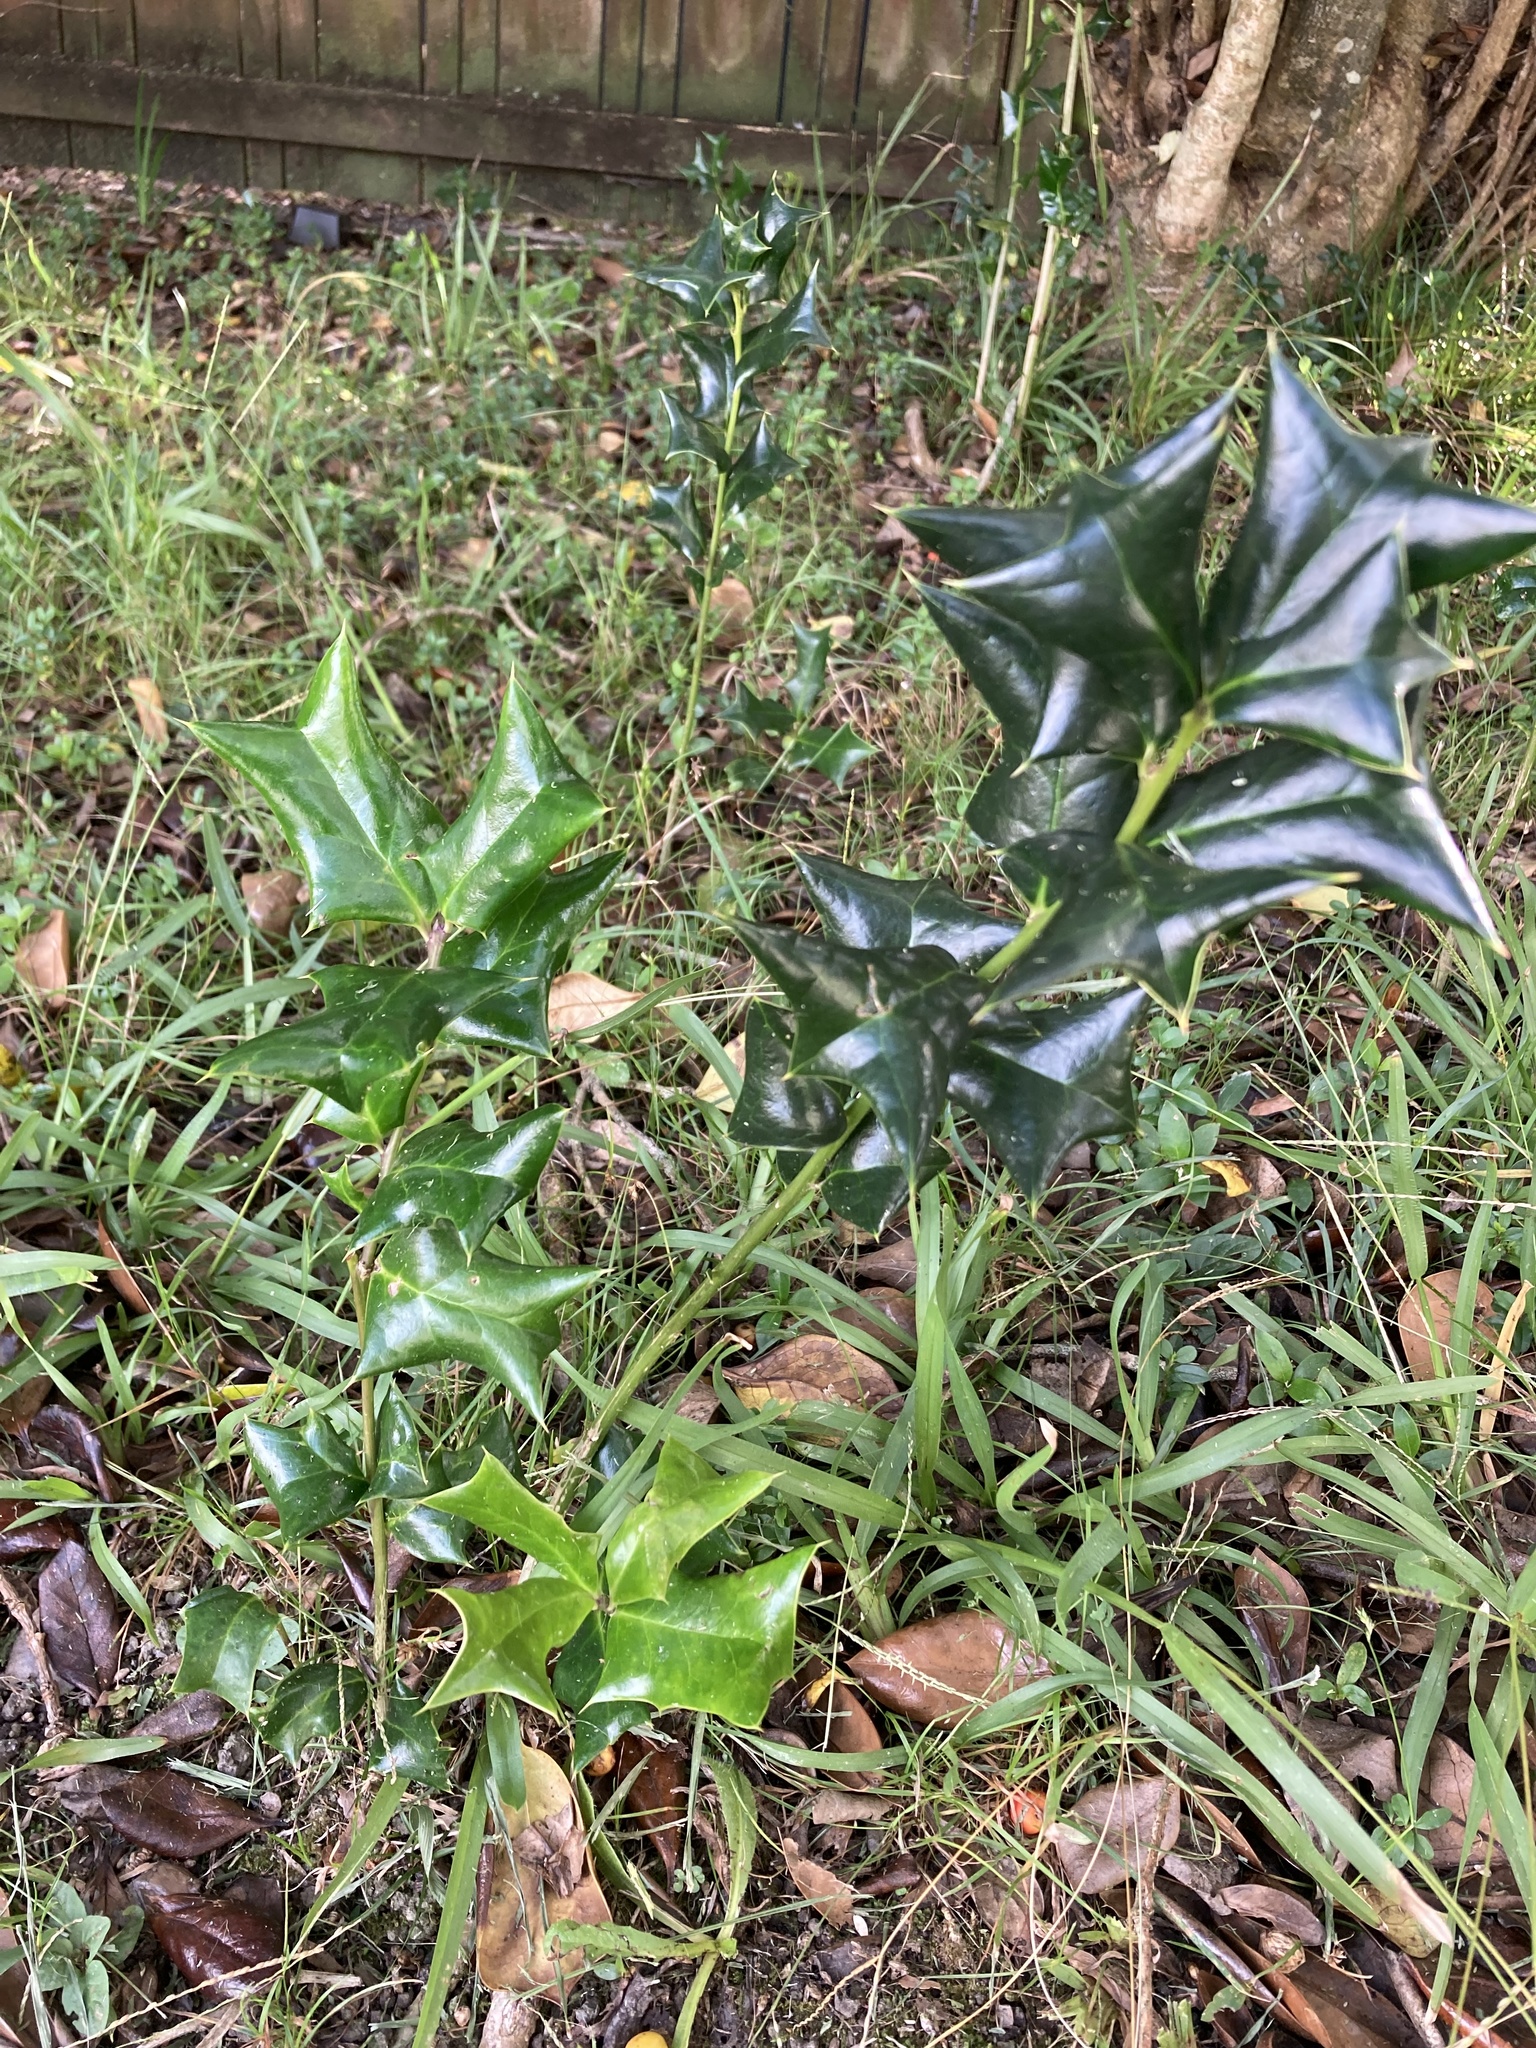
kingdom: Plantae
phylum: Tracheophyta
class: Magnoliopsida
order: Aquifoliales
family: Aquifoliaceae
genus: Ilex
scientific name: Ilex aquifolium
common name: English holly
